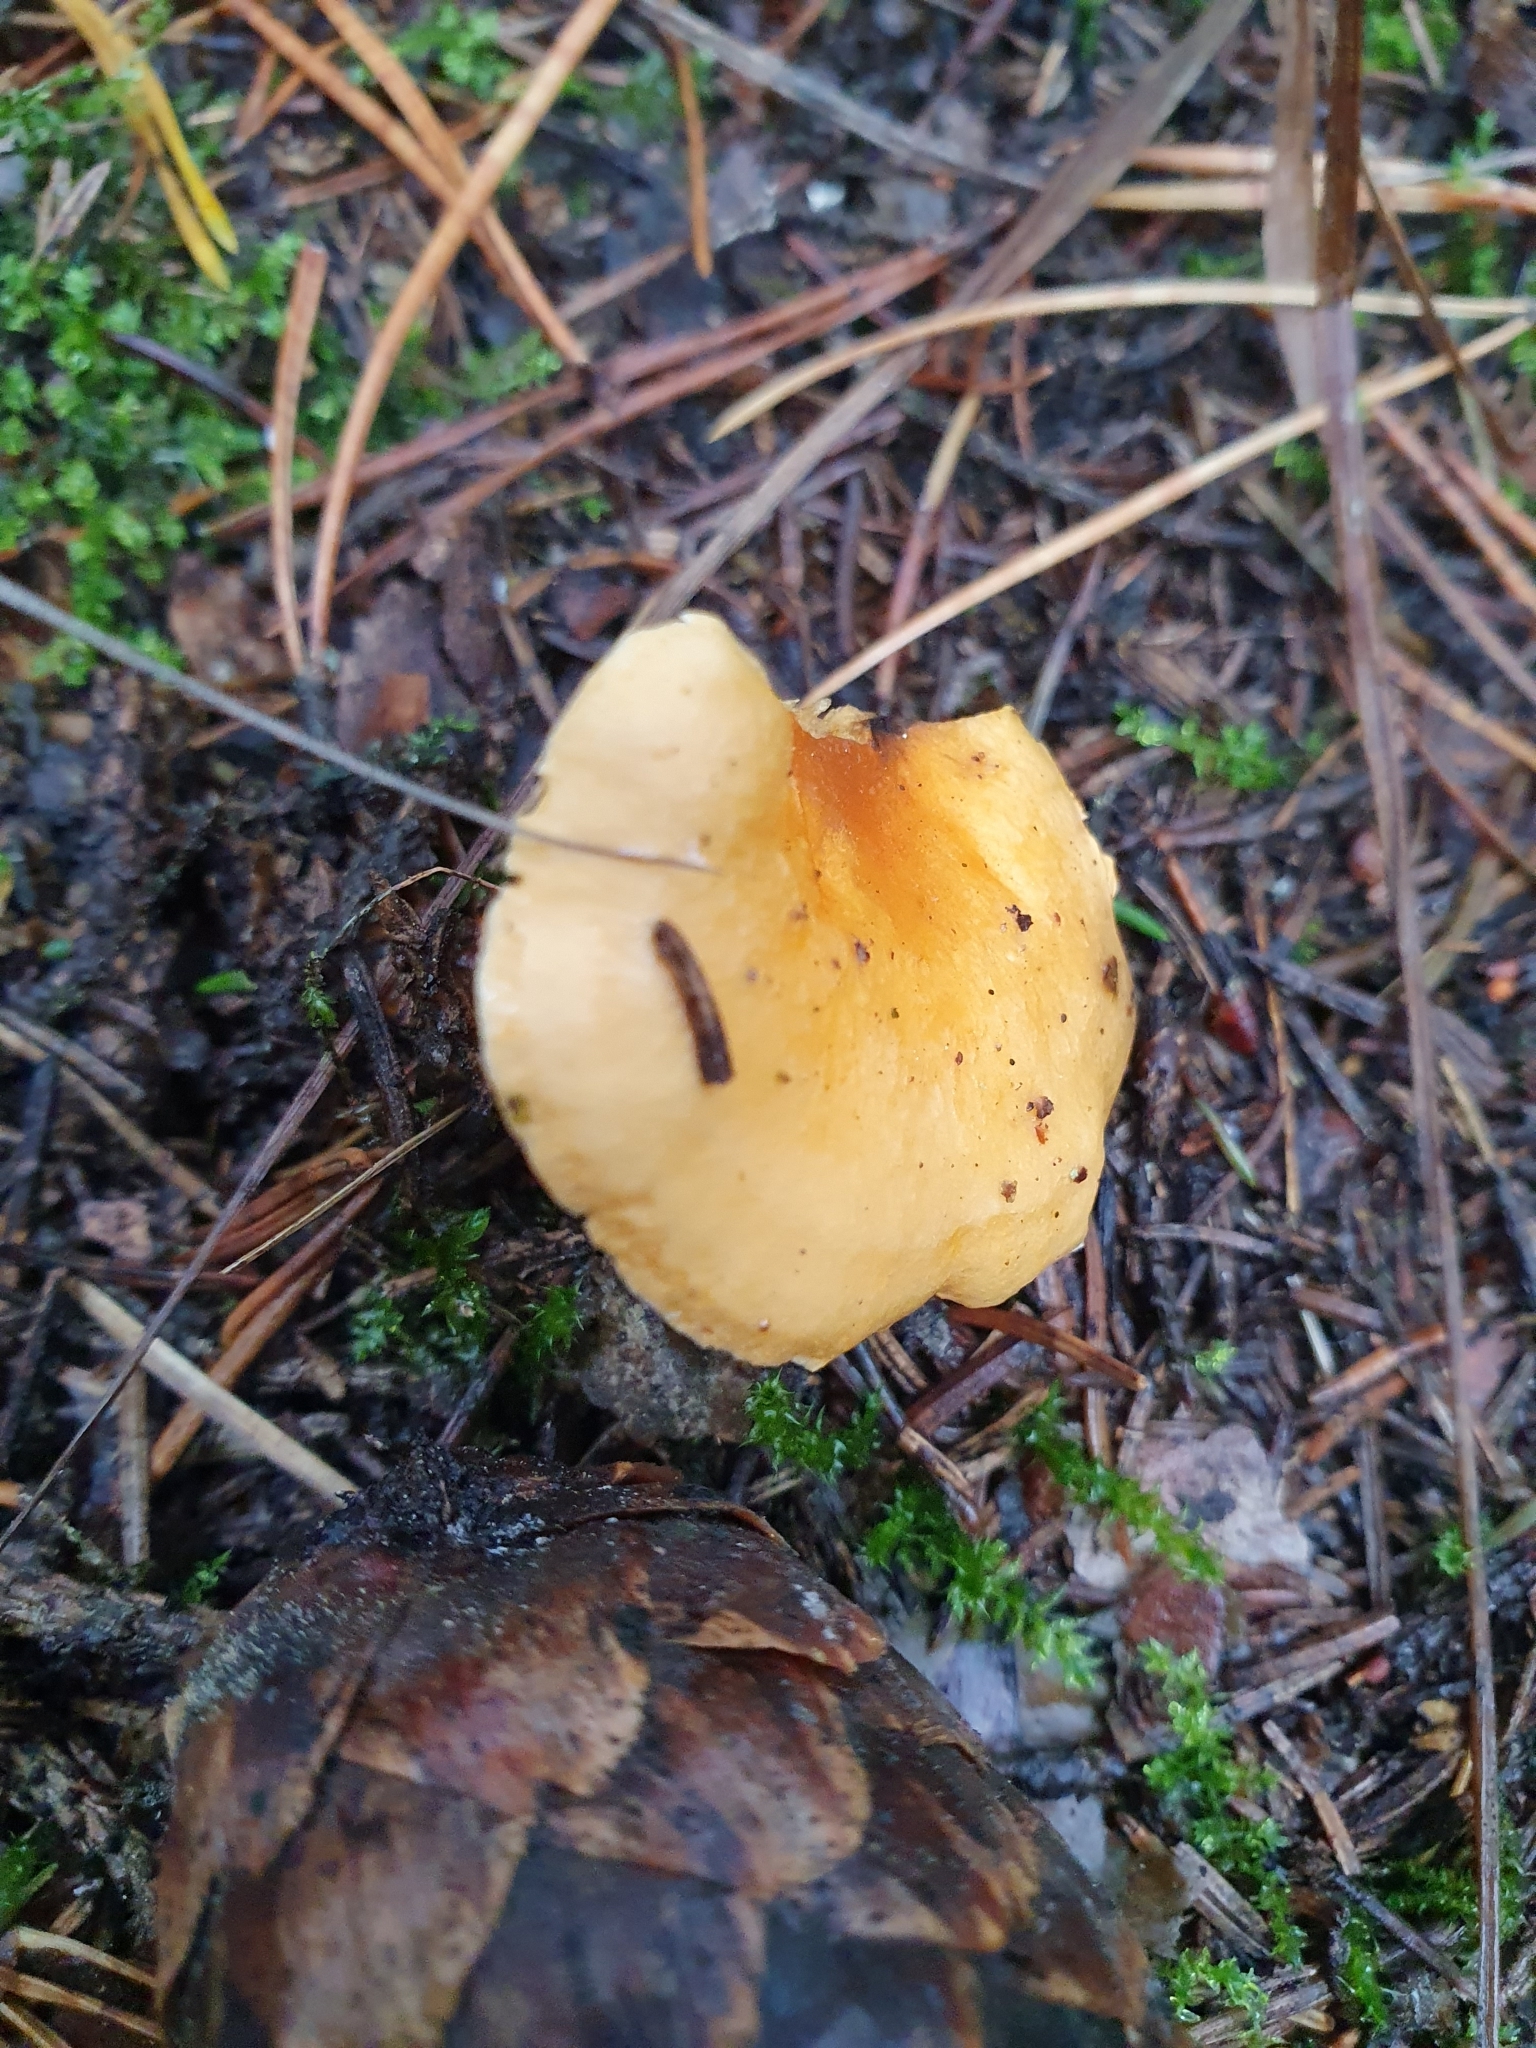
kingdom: Fungi
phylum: Basidiomycota
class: Agaricomycetes
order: Boletales
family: Hygrophoropsidaceae
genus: Hygrophoropsis
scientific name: Hygrophoropsis aurantiaca
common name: False chanterelle
